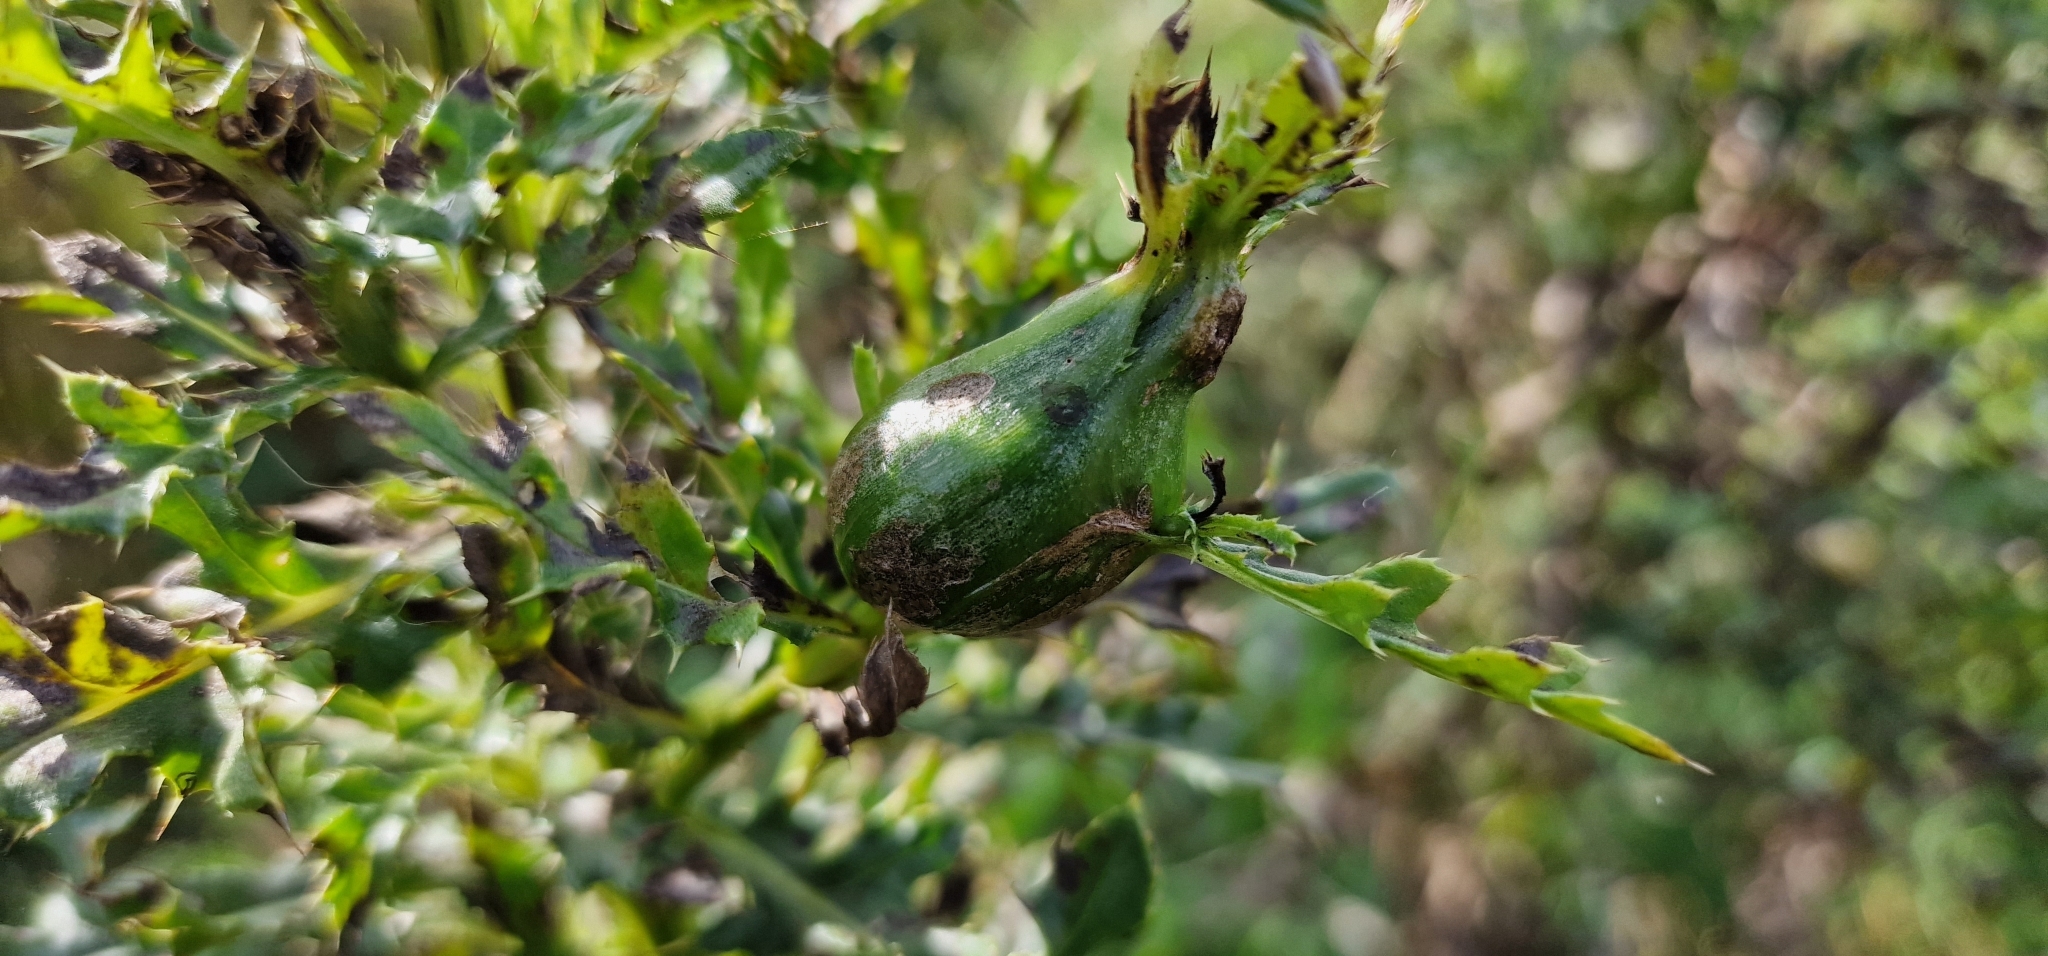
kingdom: Animalia
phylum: Arthropoda
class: Insecta
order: Diptera
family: Tephritidae
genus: Urophora
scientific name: Urophora cardui
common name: Fruit fly
